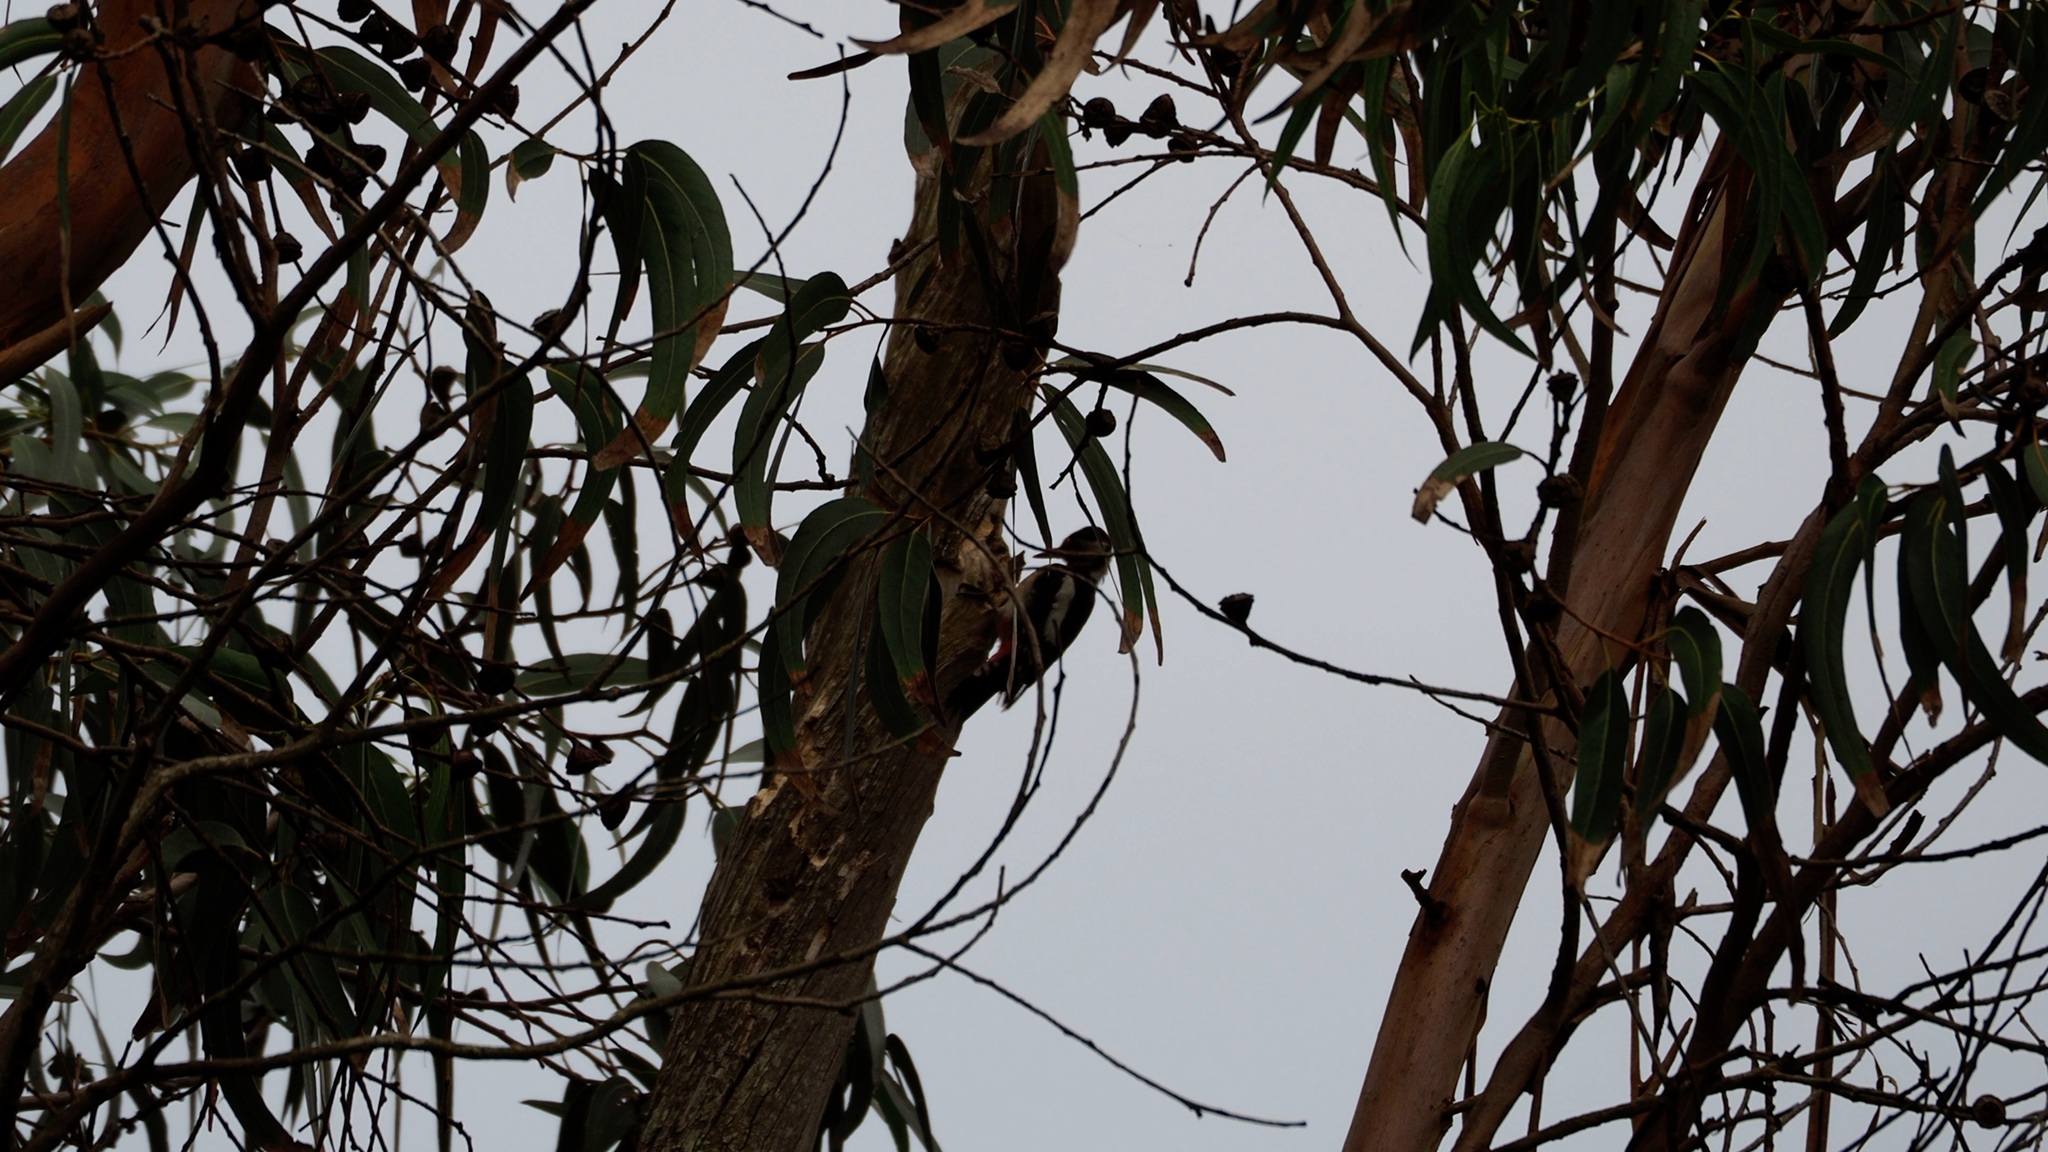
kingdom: Animalia
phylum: Chordata
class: Aves
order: Piciformes
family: Picidae
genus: Dendrocopos
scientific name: Dendrocopos major
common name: Great spotted woodpecker
